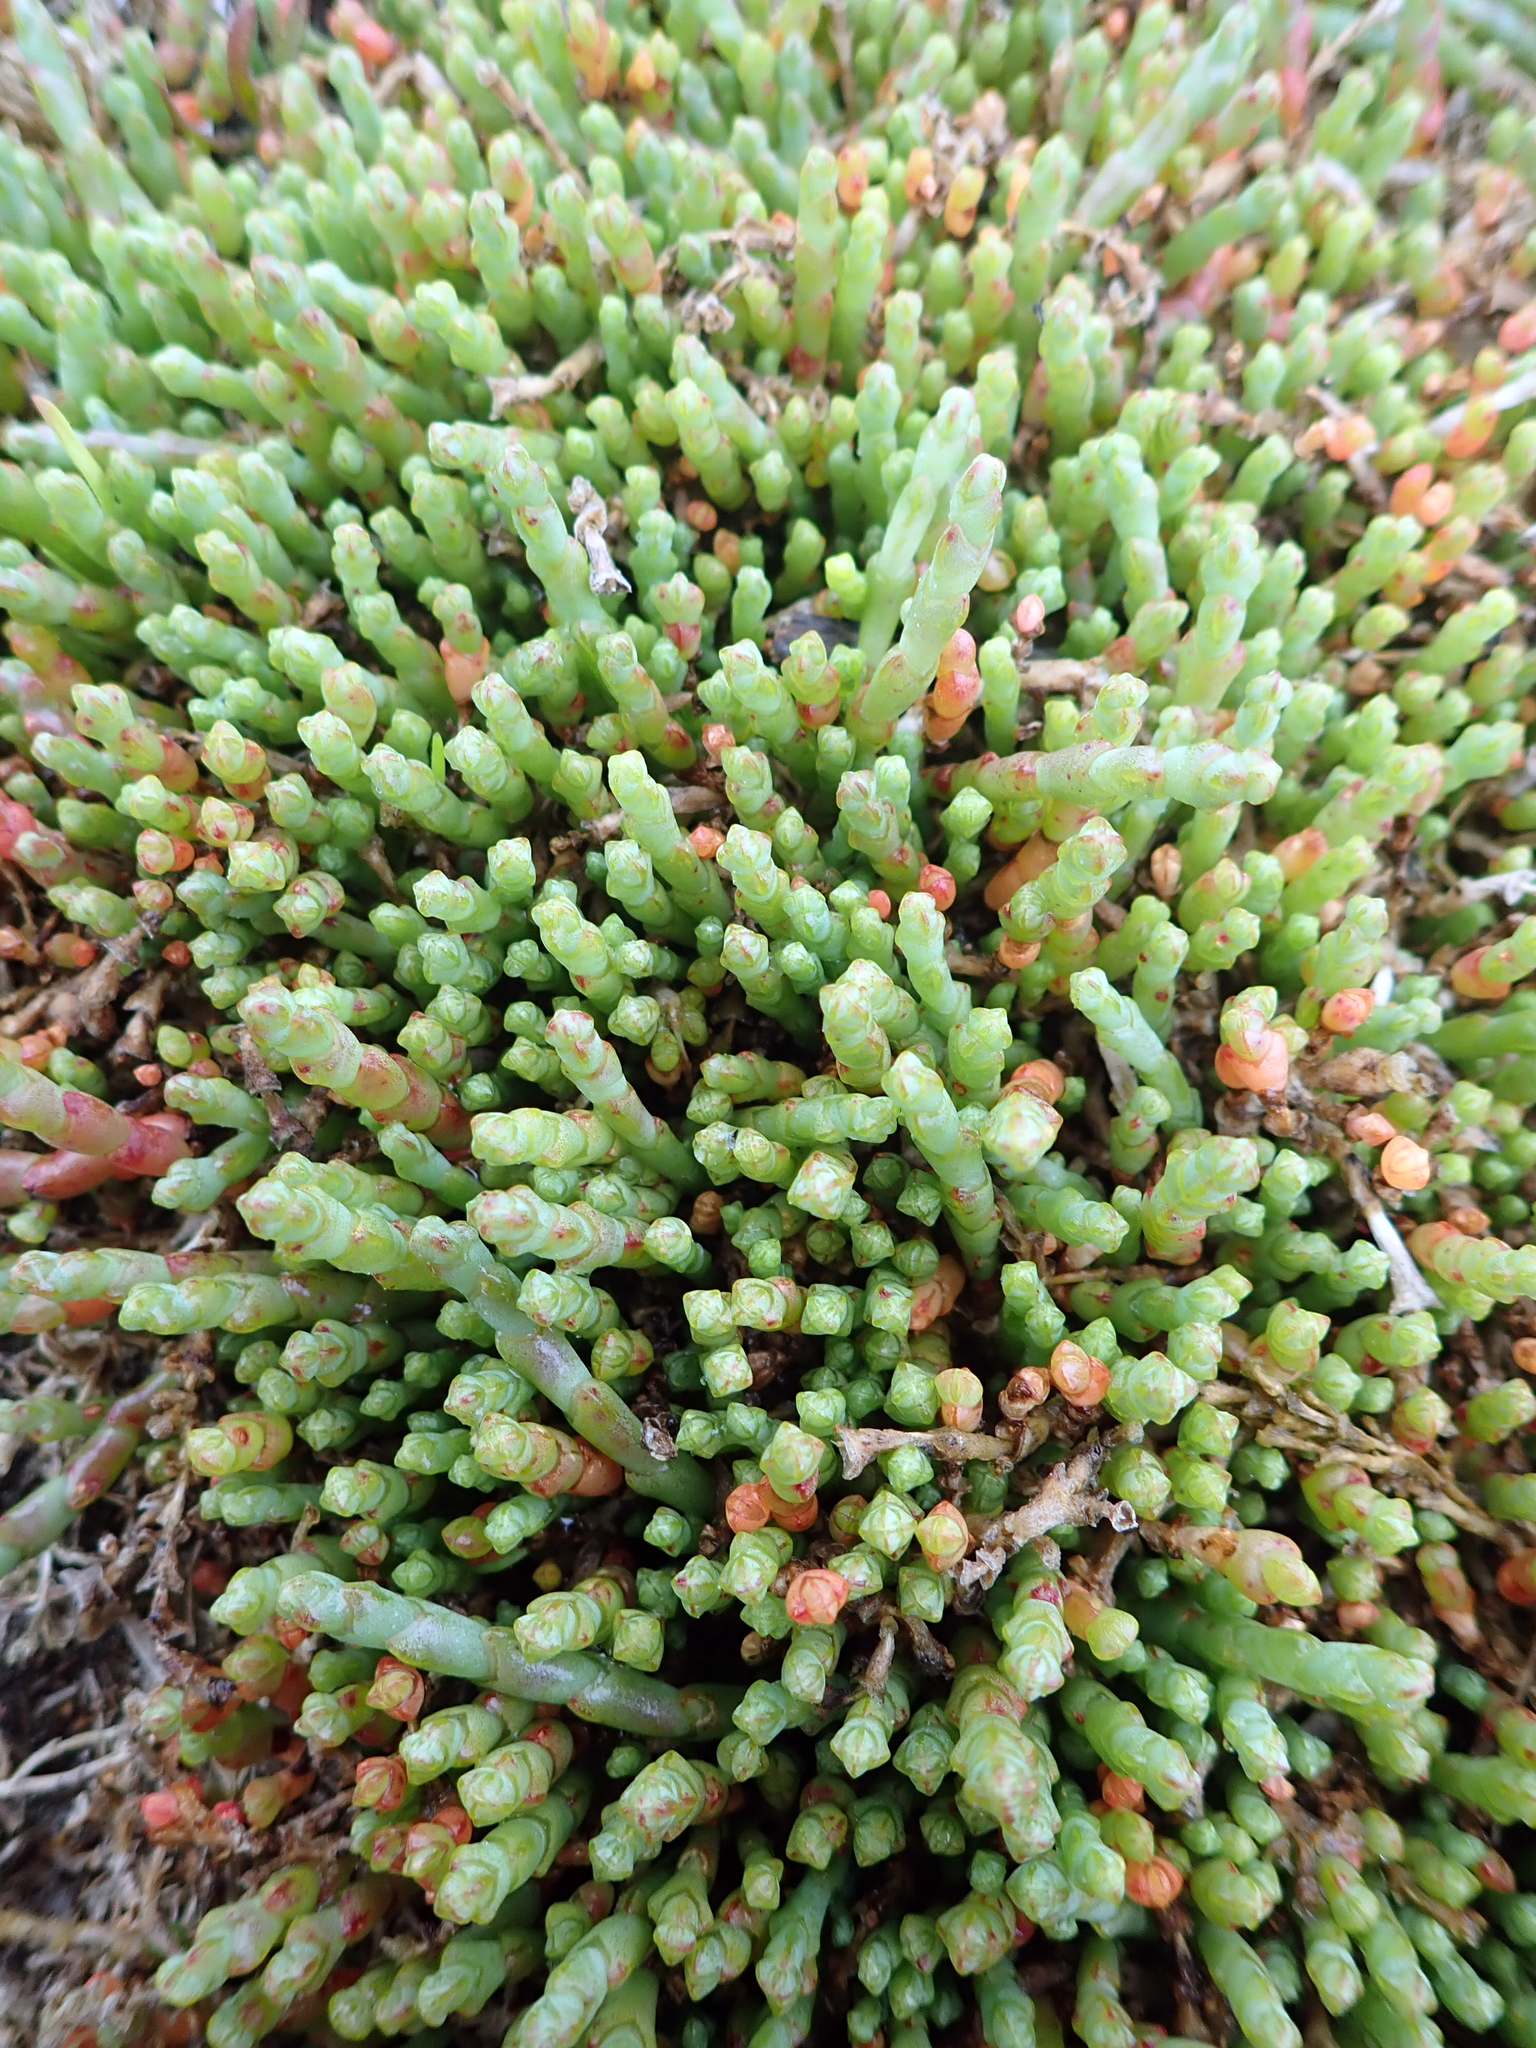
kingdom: Plantae
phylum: Tracheophyta
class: Magnoliopsida
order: Caryophyllales
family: Amaranthaceae
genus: Salicornia
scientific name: Salicornia quinqueflora
